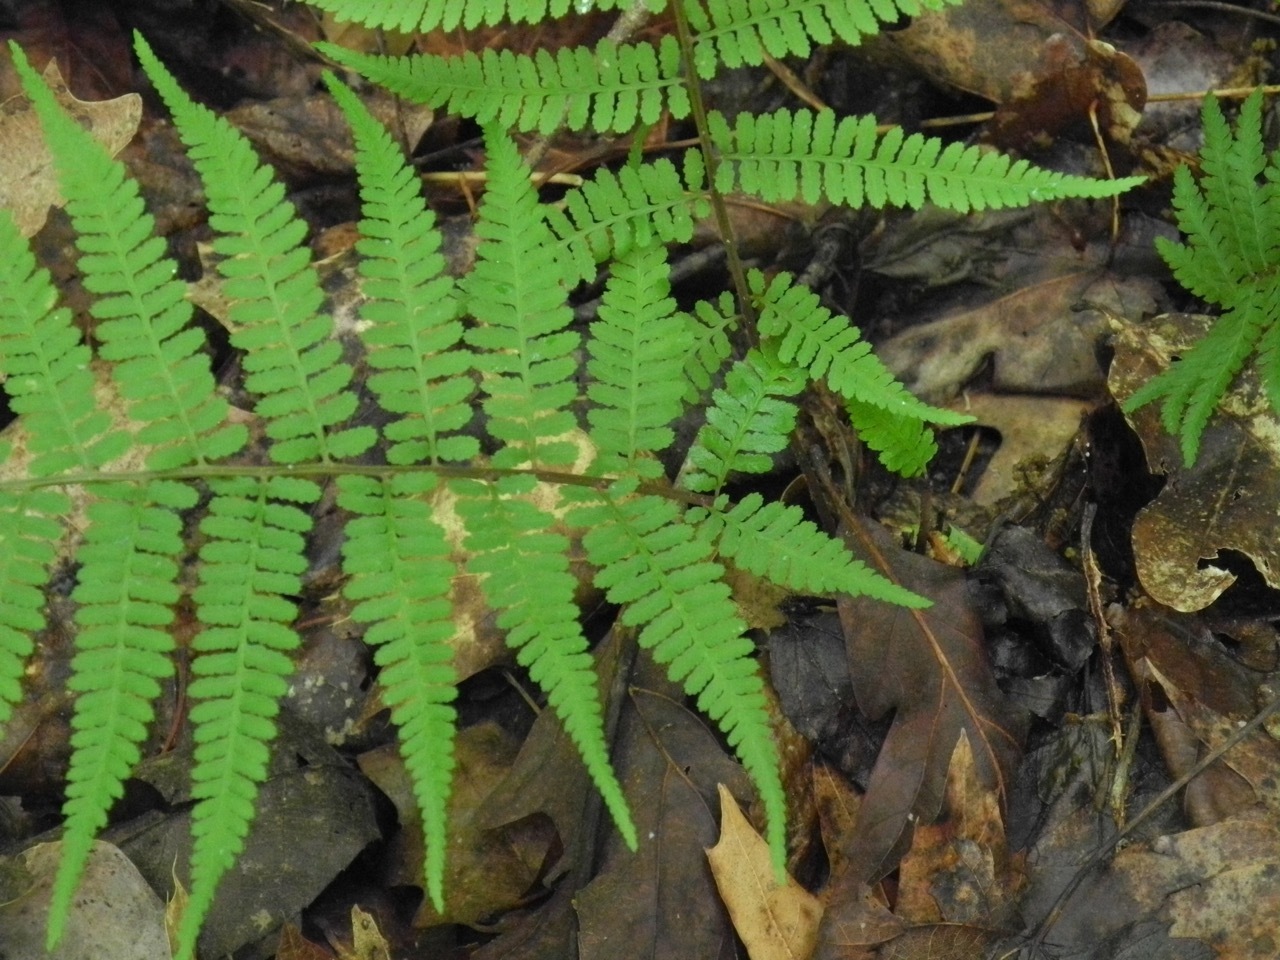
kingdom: Plantae
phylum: Tracheophyta
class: Polypodiopsida
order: Polypodiales
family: Athyriaceae
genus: Athyrium
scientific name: Athyrium asplenioides
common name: Southern lady fern
